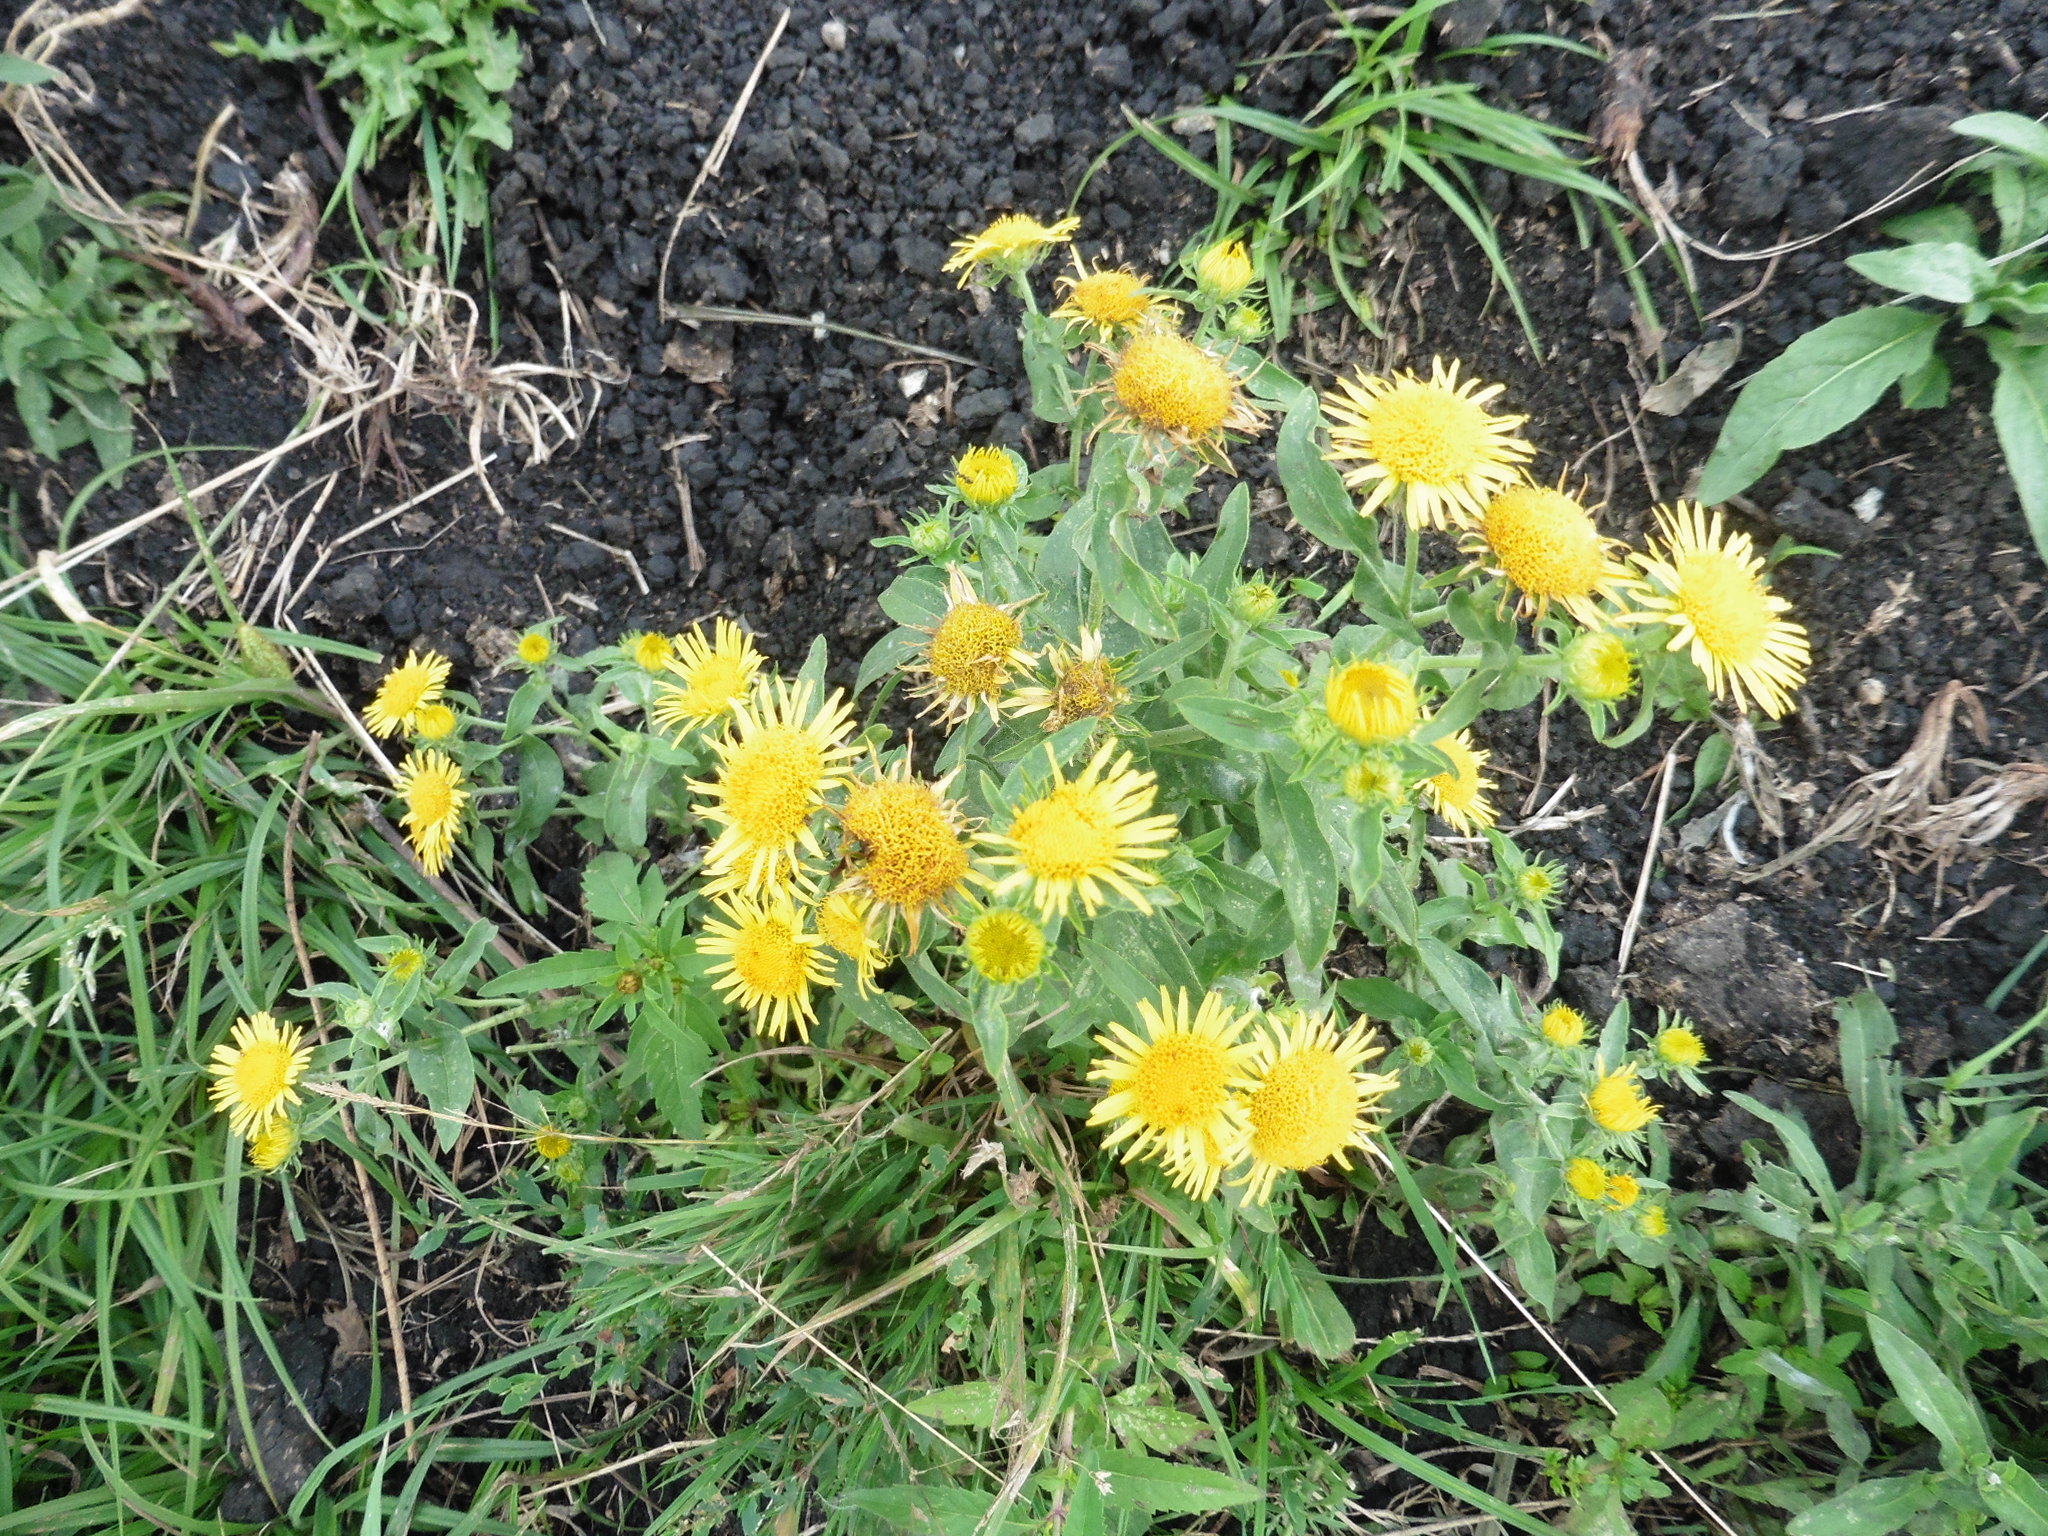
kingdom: Plantae
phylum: Tracheophyta
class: Magnoliopsida
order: Asterales
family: Asteraceae
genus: Pentanema
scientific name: Pentanema britannicum
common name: British elecampane
